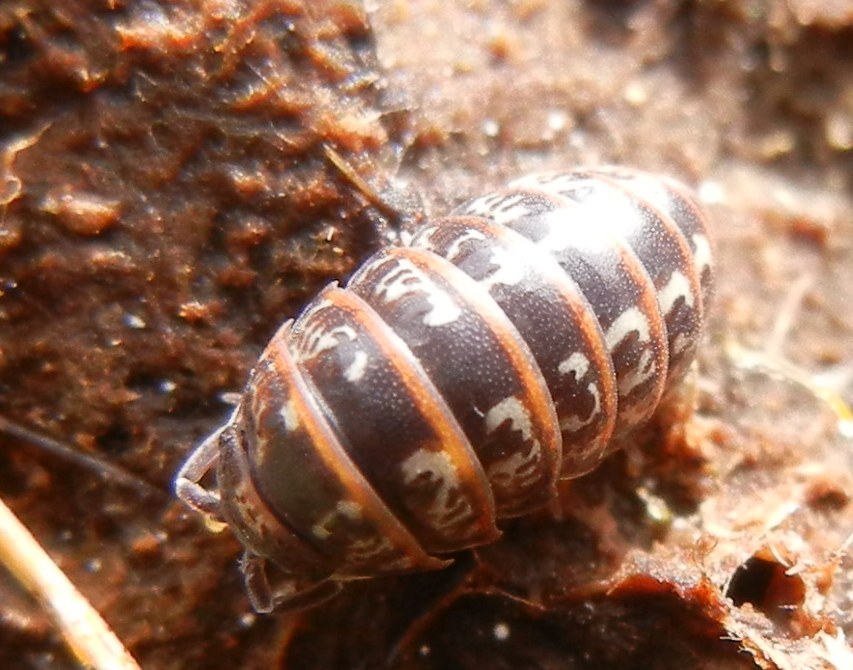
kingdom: Animalia
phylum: Arthropoda
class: Malacostraca
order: Isopoda
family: Armadillidiidae
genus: Armadillidium
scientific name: Armadillidium
